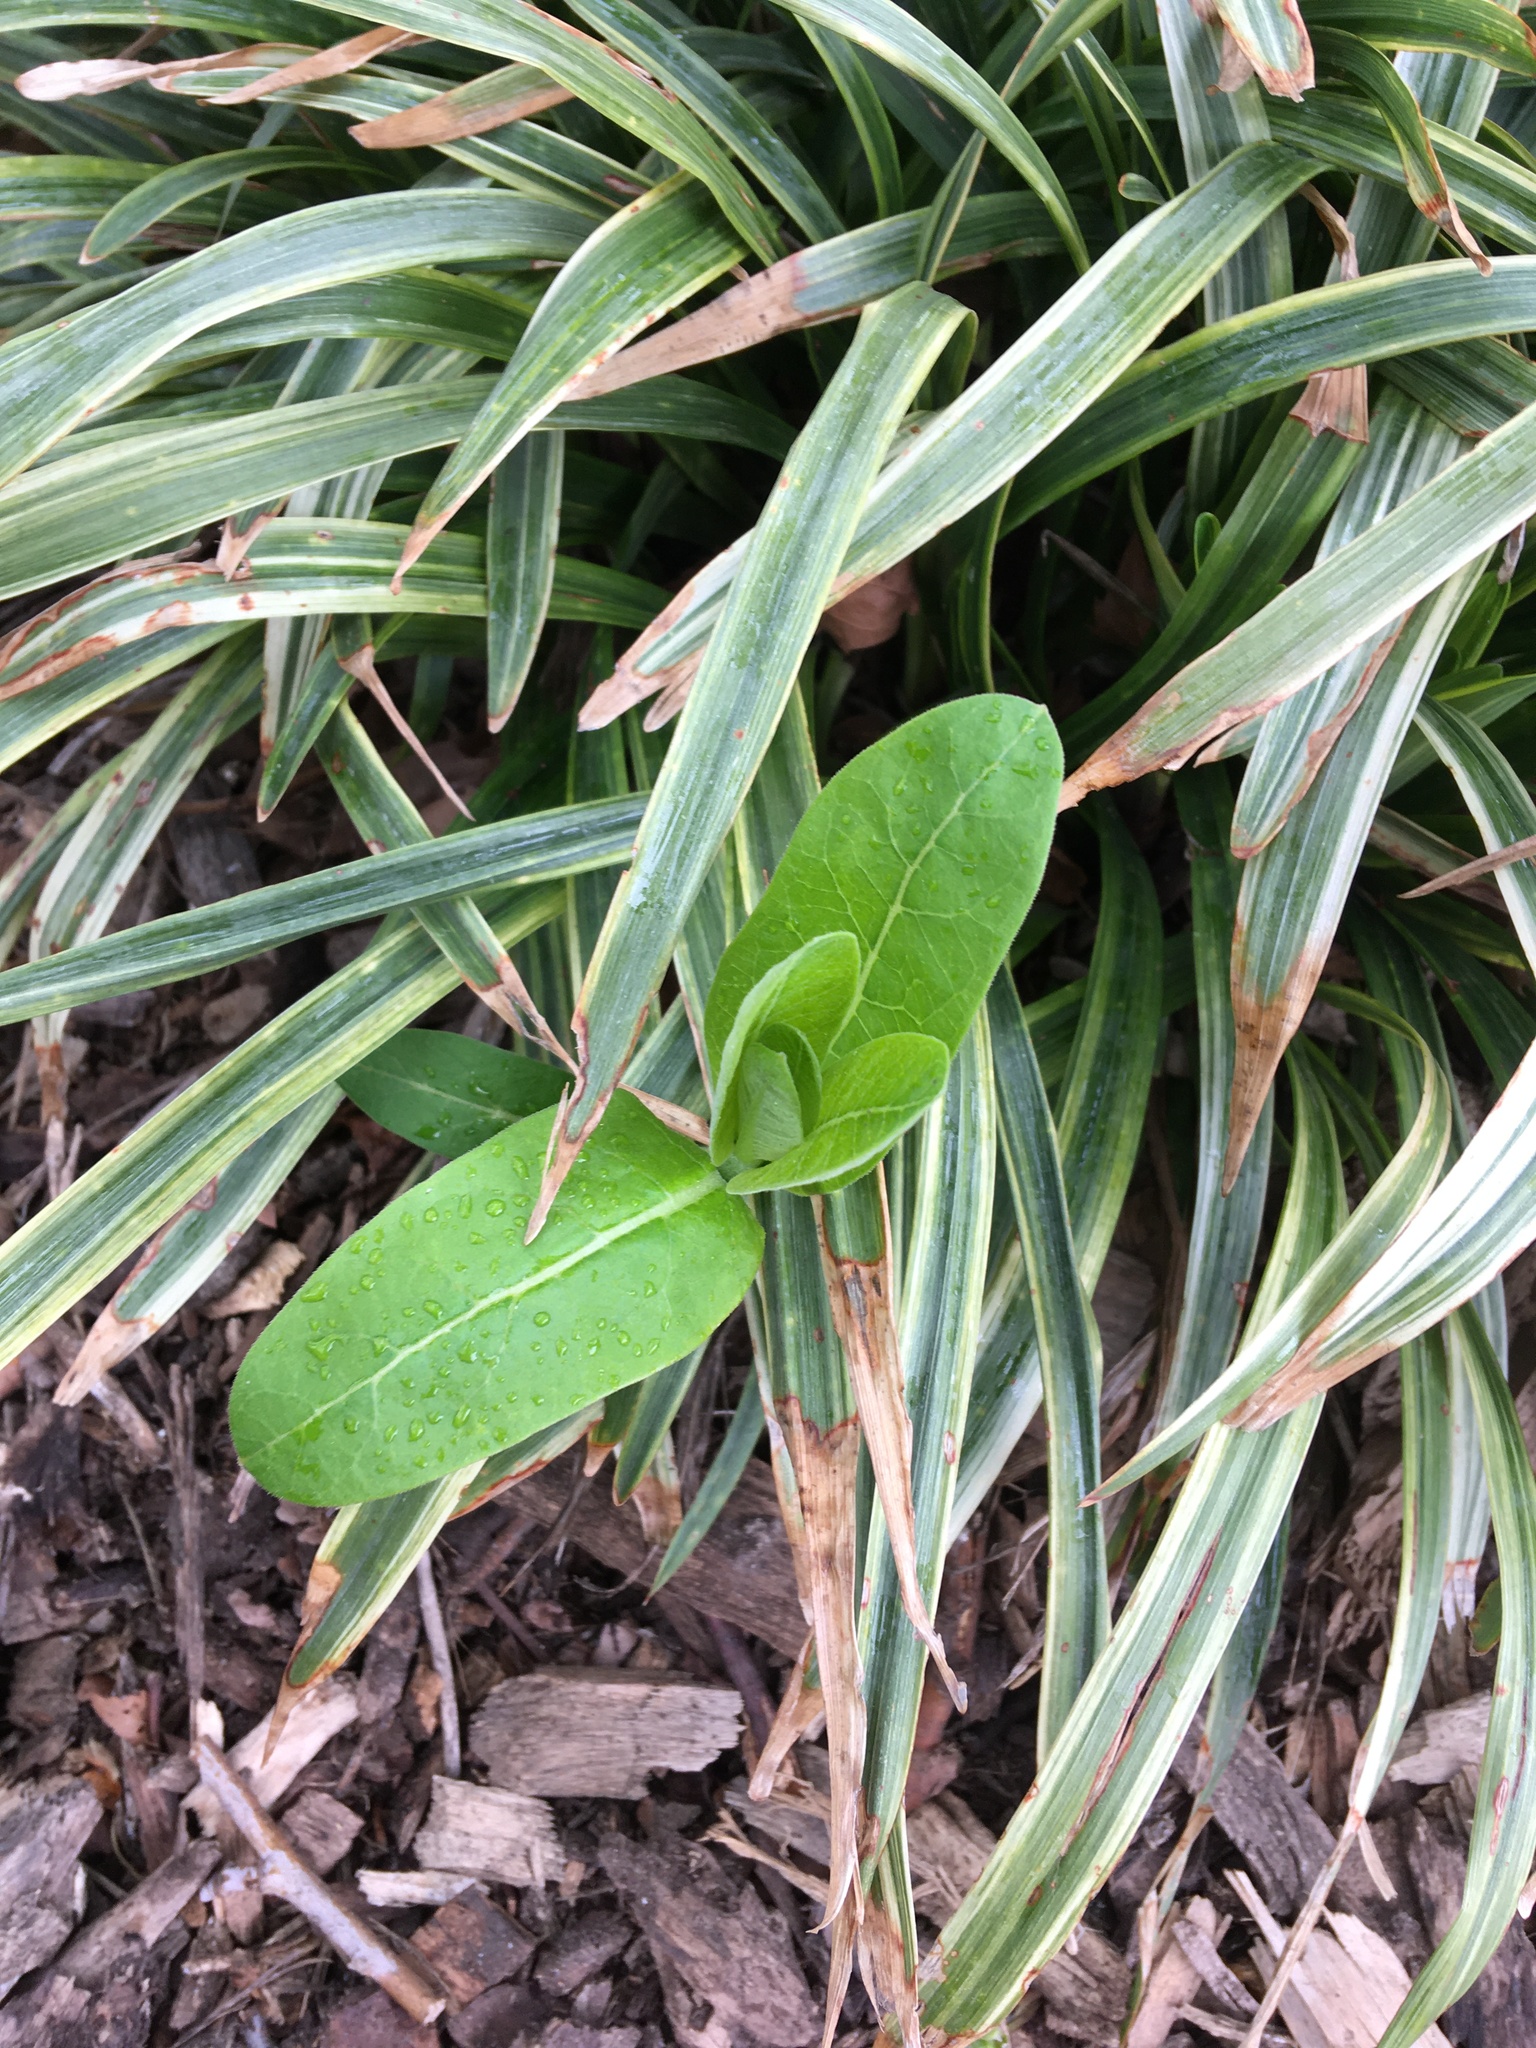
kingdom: Plantae
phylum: Tracheophyta
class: Magnoliopsida
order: Gentianales
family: Apocynaceae
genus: Asclepias
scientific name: Asclepias syriaca
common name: Common milkweed
